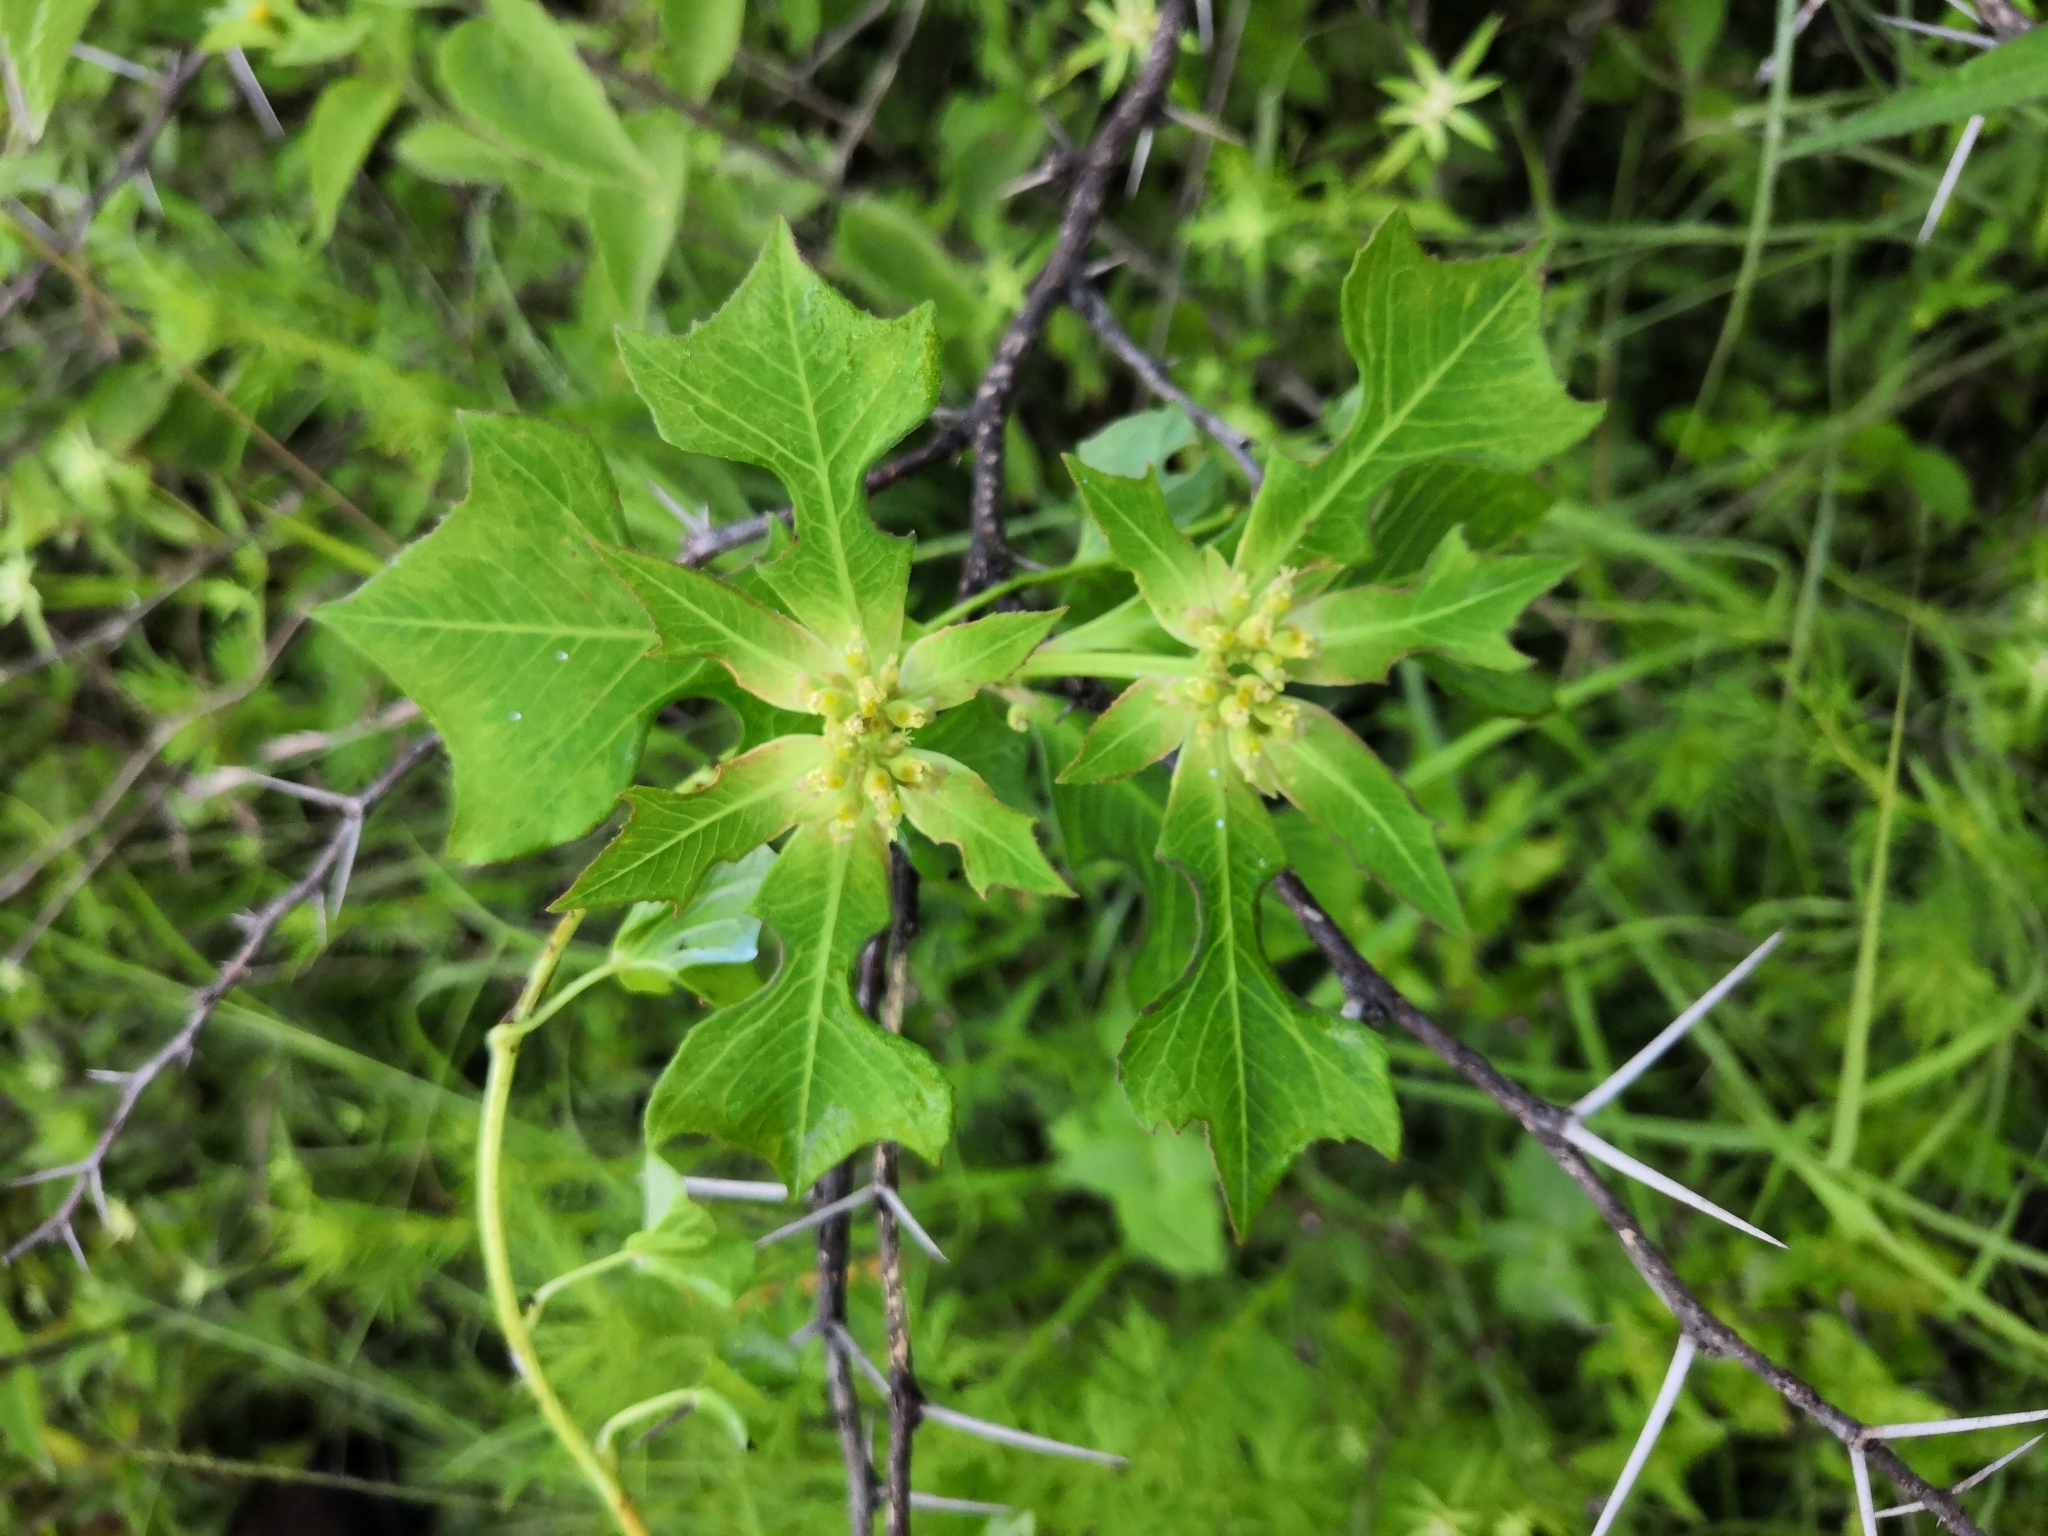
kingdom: Plantae
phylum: Tracheophyta
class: Magnoliopsida
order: Malpighiales
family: Euphorbiaceae
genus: Euphorbia
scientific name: Euphorbia heterophylla
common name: Mexican fireplant
